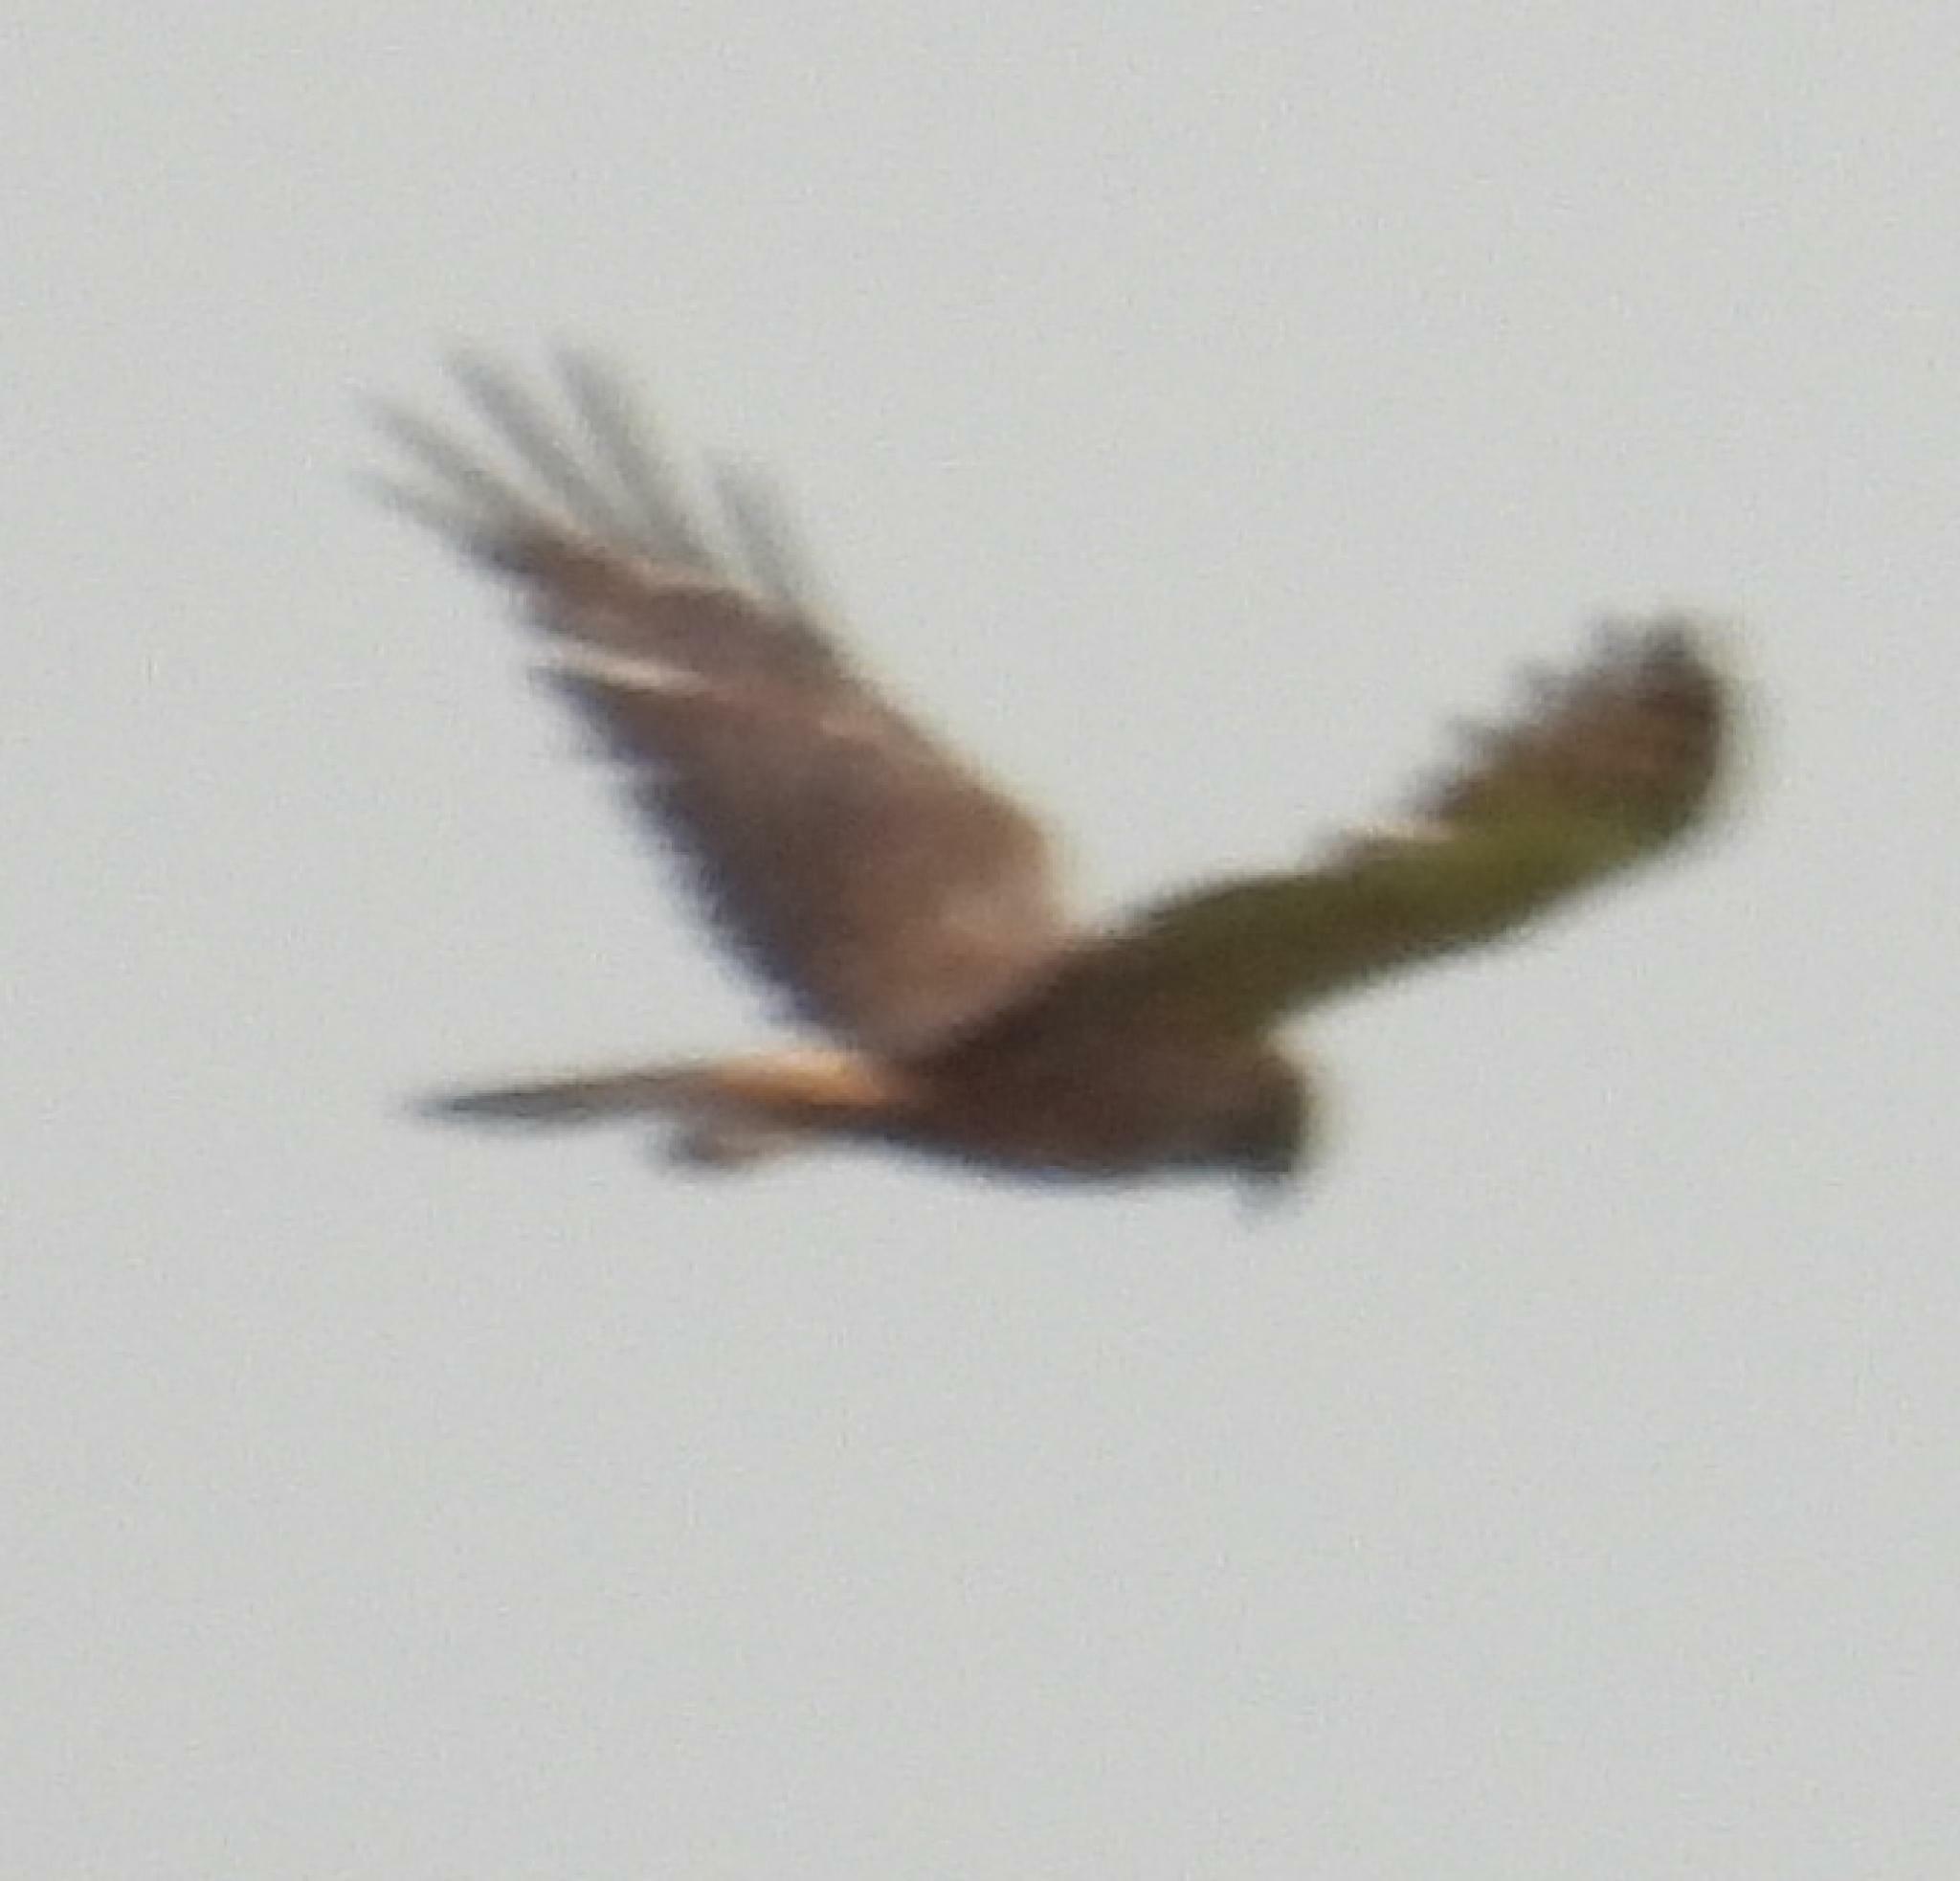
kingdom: Animalia
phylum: Chordata
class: Aves
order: Accipitriformes
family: Accipitridae
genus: Circus
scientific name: Circus ranivorus
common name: African marsh-harrier
